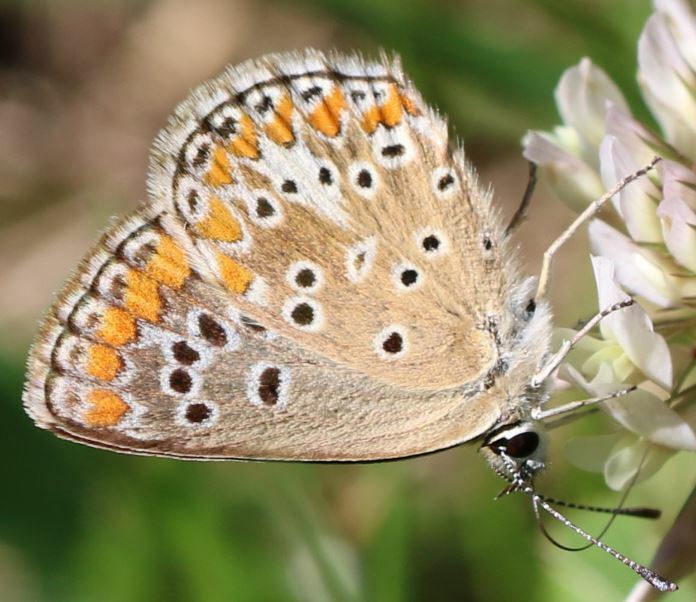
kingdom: Animalia
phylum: Arthropoda
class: Insecta
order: Lepidoptera
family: Lycaenidae
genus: Aricia
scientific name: Aricia agestis
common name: Brown argus
